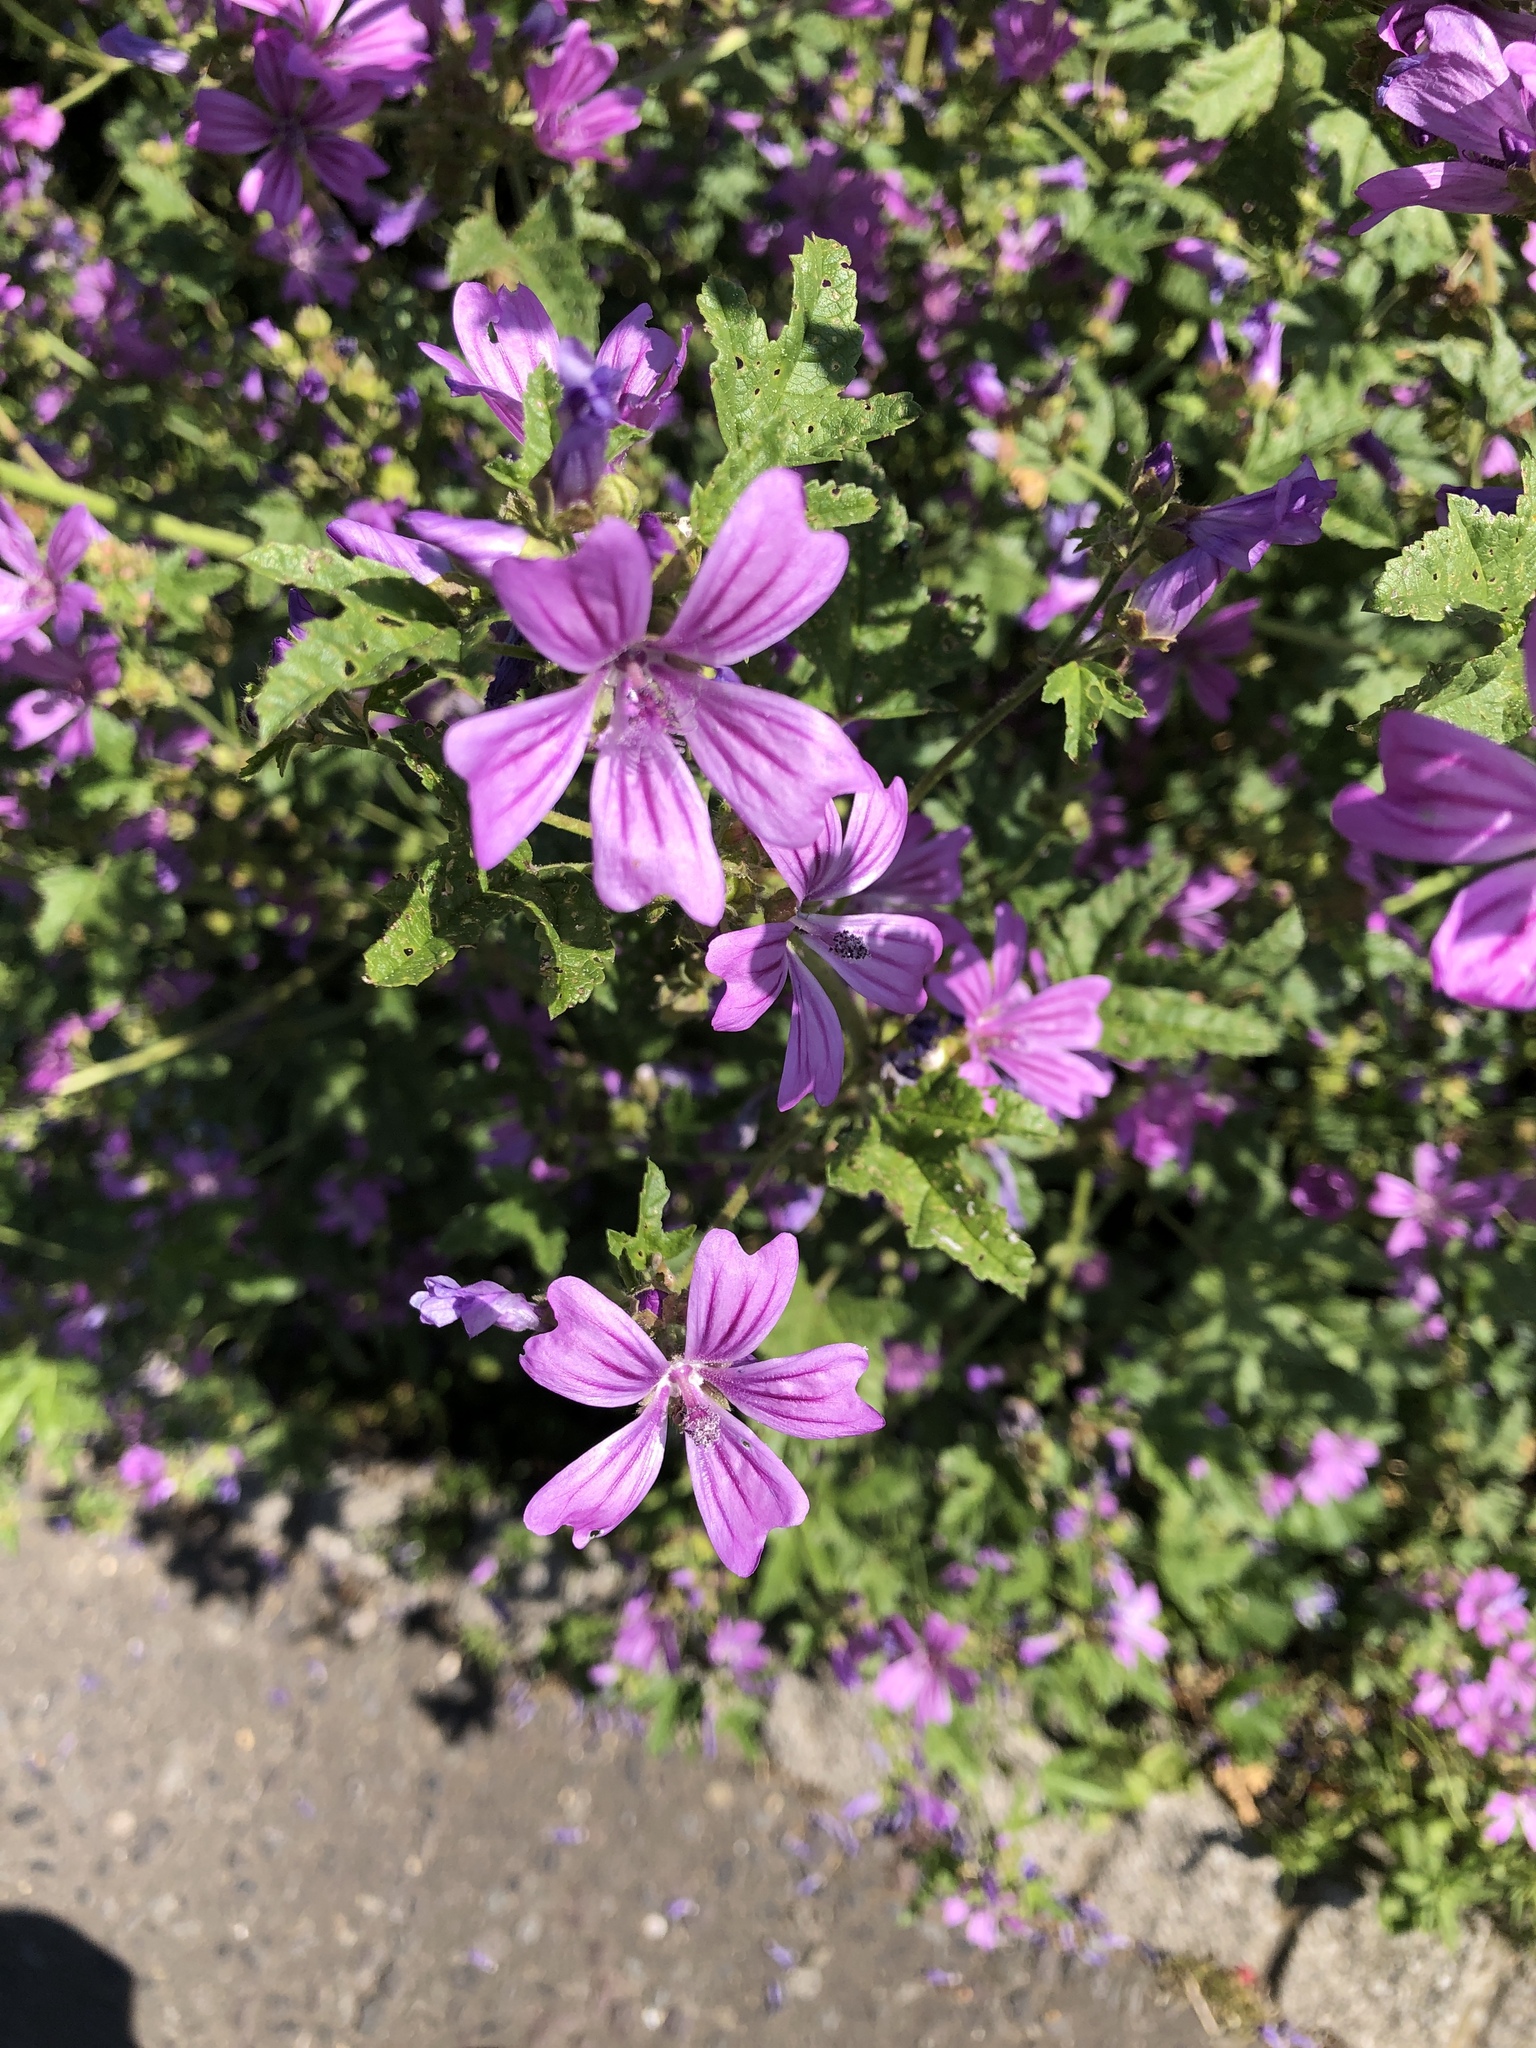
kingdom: Plantae
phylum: Tracheophyta
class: Magnoliopsida
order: Malvales
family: Malvaceae
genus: Malva
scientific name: Malva sylvestris
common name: Common mallow
